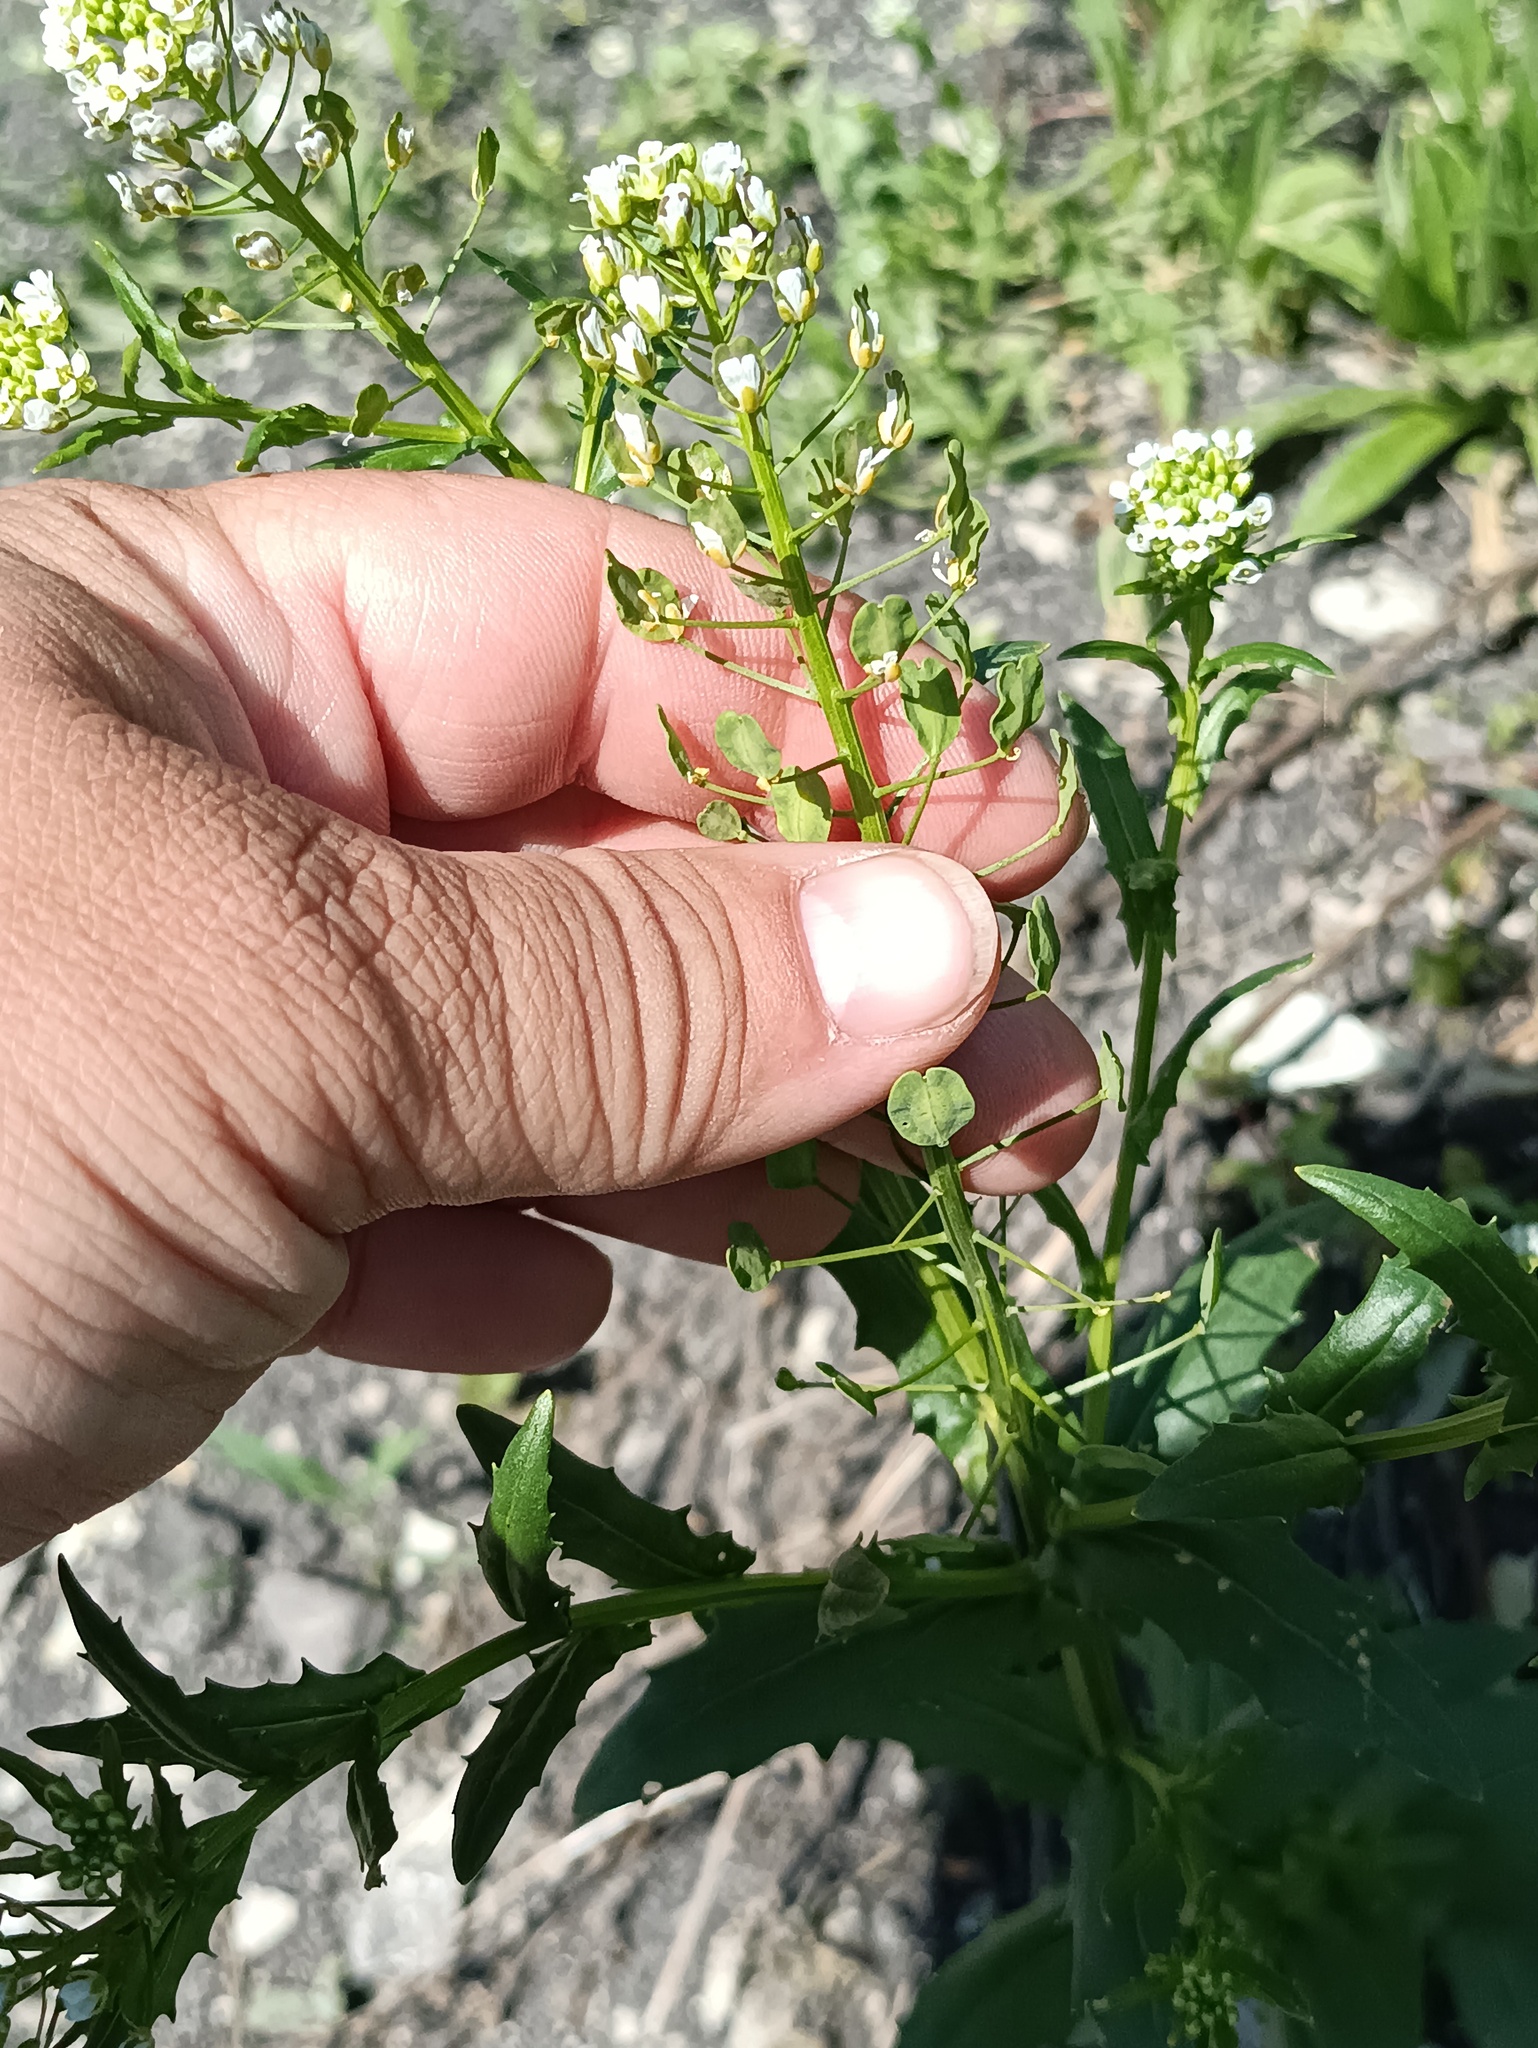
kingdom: Plantae
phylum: Tracheophyta
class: Magnoliopsida
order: Brassicales
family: Brassicaceae
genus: Thlaspi
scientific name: Thlaspi arvense
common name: Field pennycress
